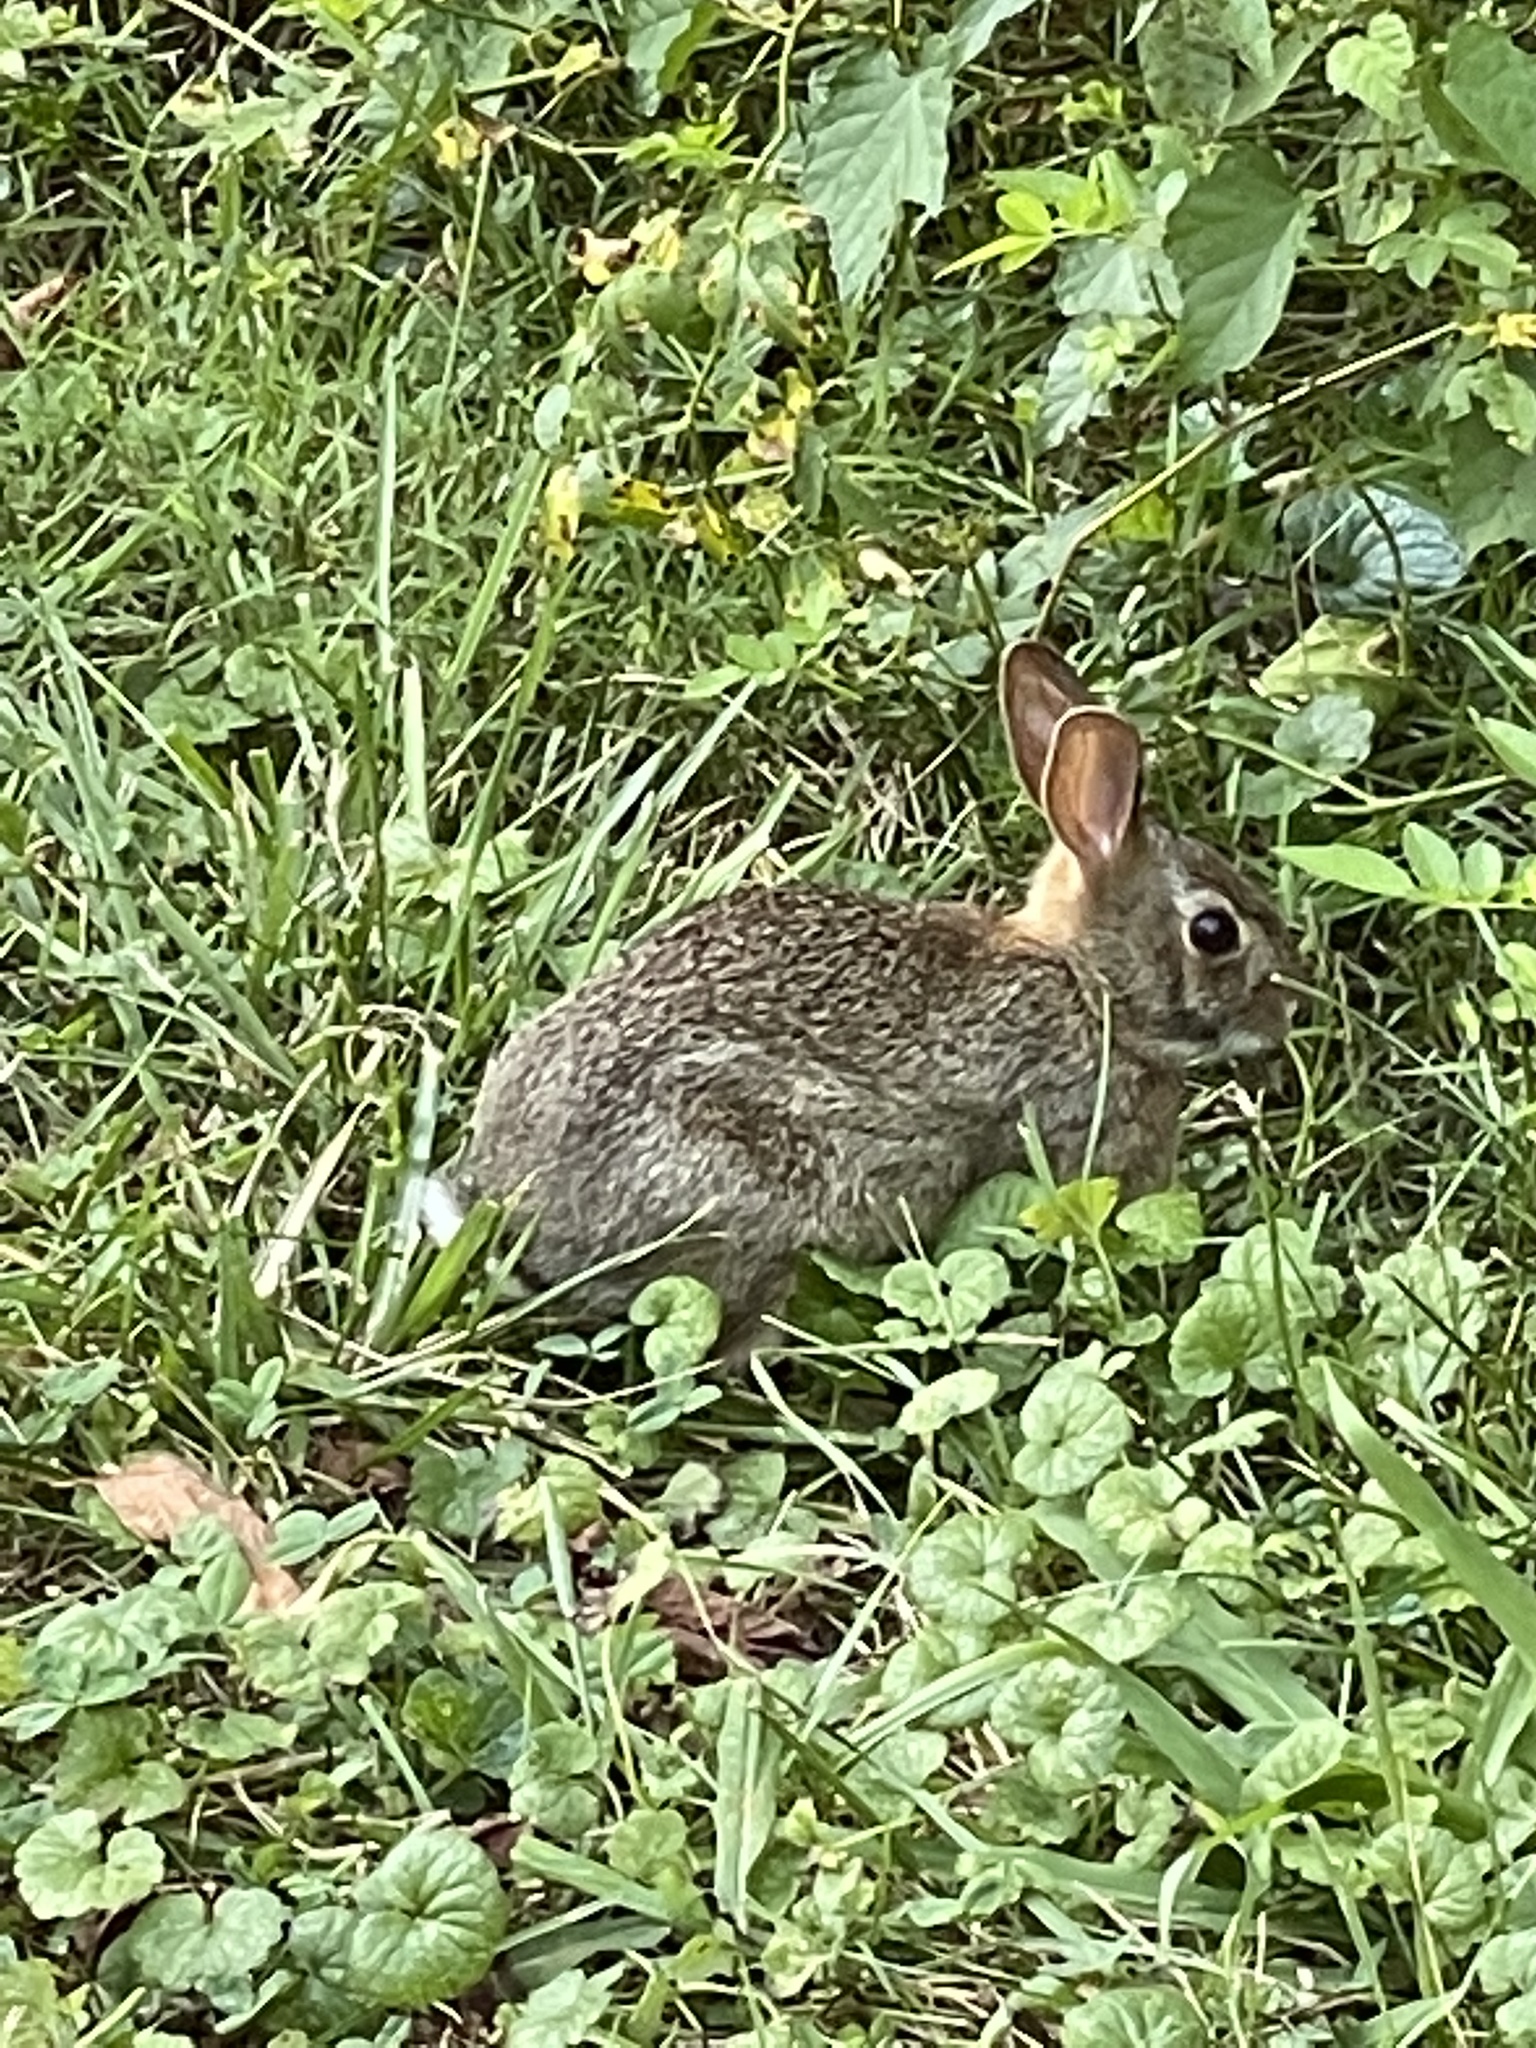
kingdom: Animalia
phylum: Chordata
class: Mammalia
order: Lagomorpha
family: Leporidae
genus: Sylvilagus
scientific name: Sylvilagus floridanus
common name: Eastern cottontail
